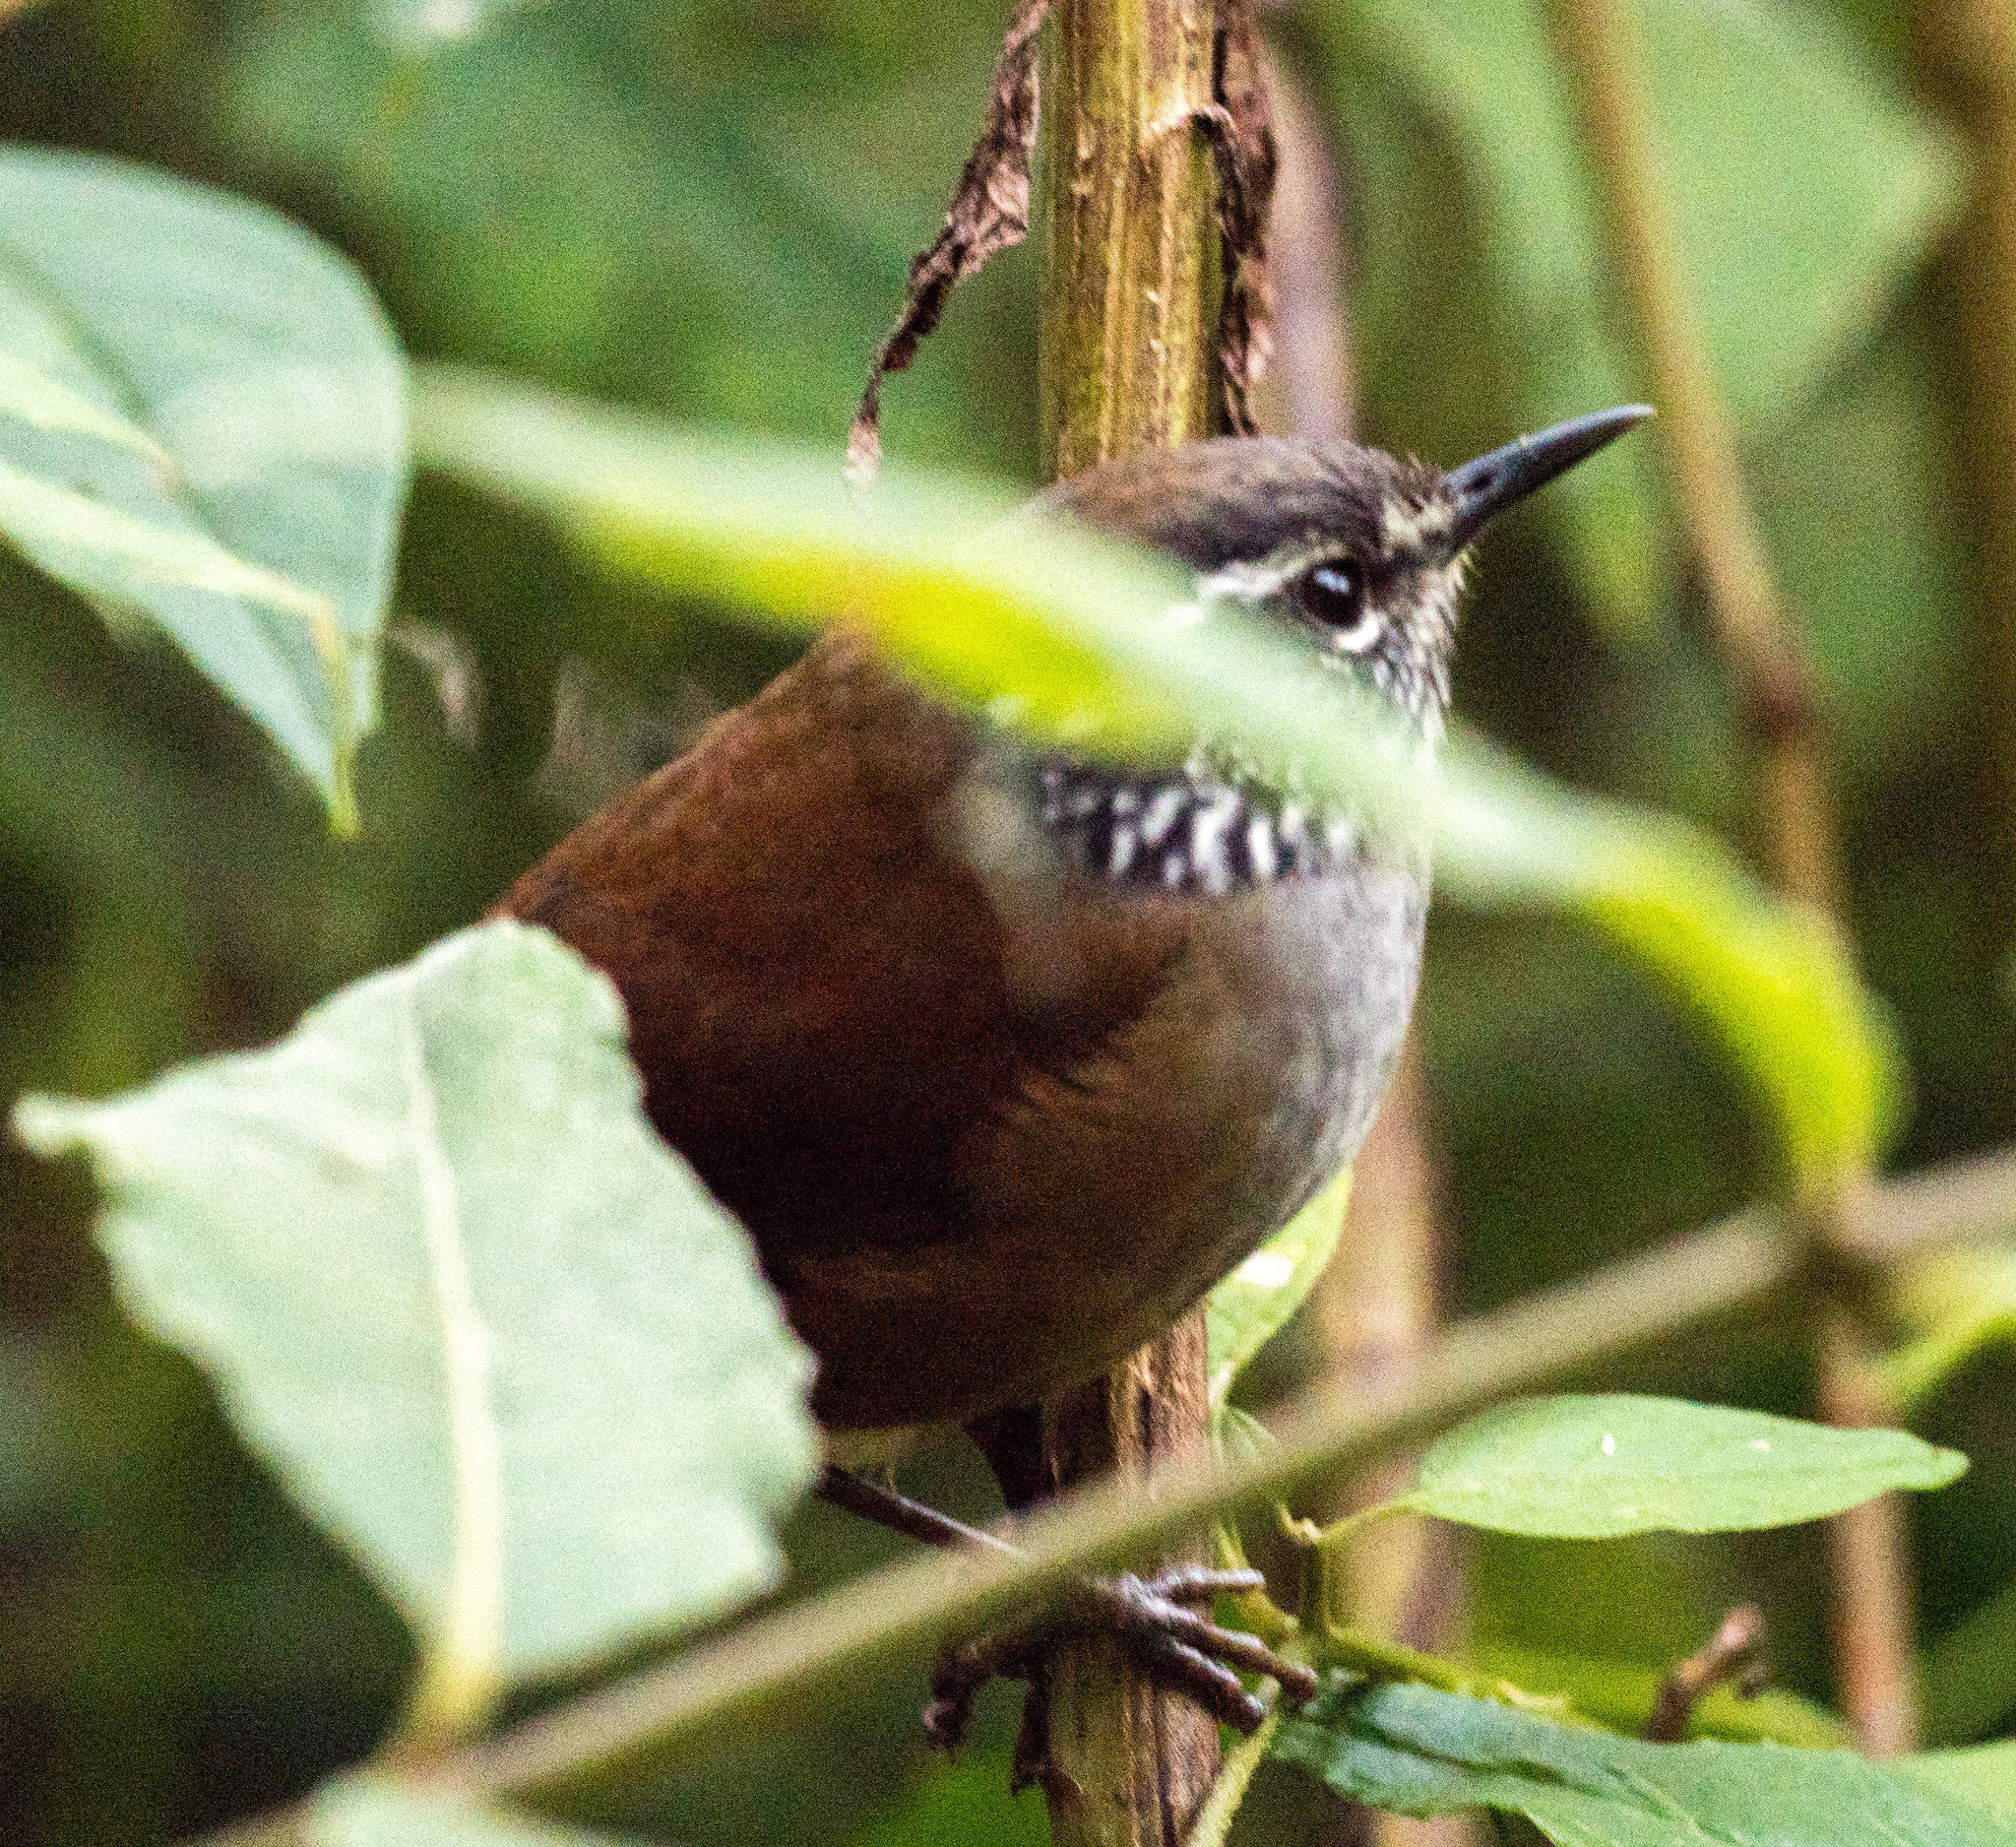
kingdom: Animalia
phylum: Chordata
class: Aves
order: Passeriformes
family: Troglodytidae
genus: Henicorhina
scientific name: Henicorhina anachoreta
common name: Hermit wood-wren
